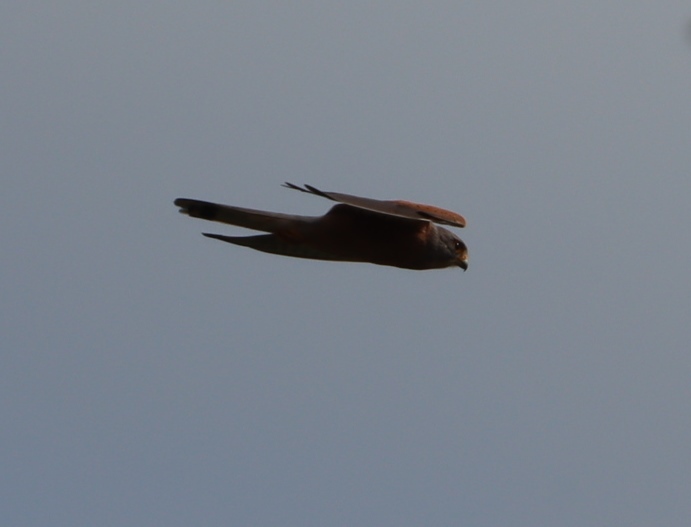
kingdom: Animalia
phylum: Chordata
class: Aves
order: Falconiformes
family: Falconidae
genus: Falco
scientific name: Falco rupicolus
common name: Rock kestrel
